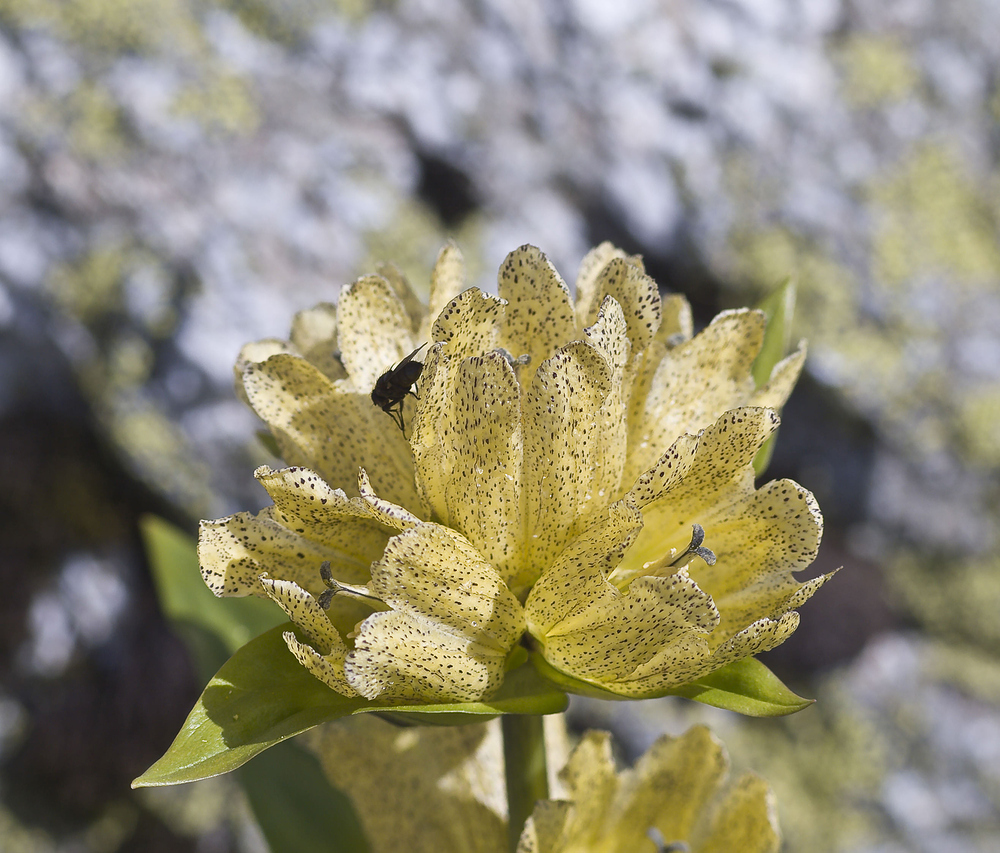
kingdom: Plantae
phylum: Tracheophyta
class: Magnoliopsida
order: Gentianales
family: Gentianaceae
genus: Gentiana
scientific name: Gentiana punctata
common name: Spotted gentian
